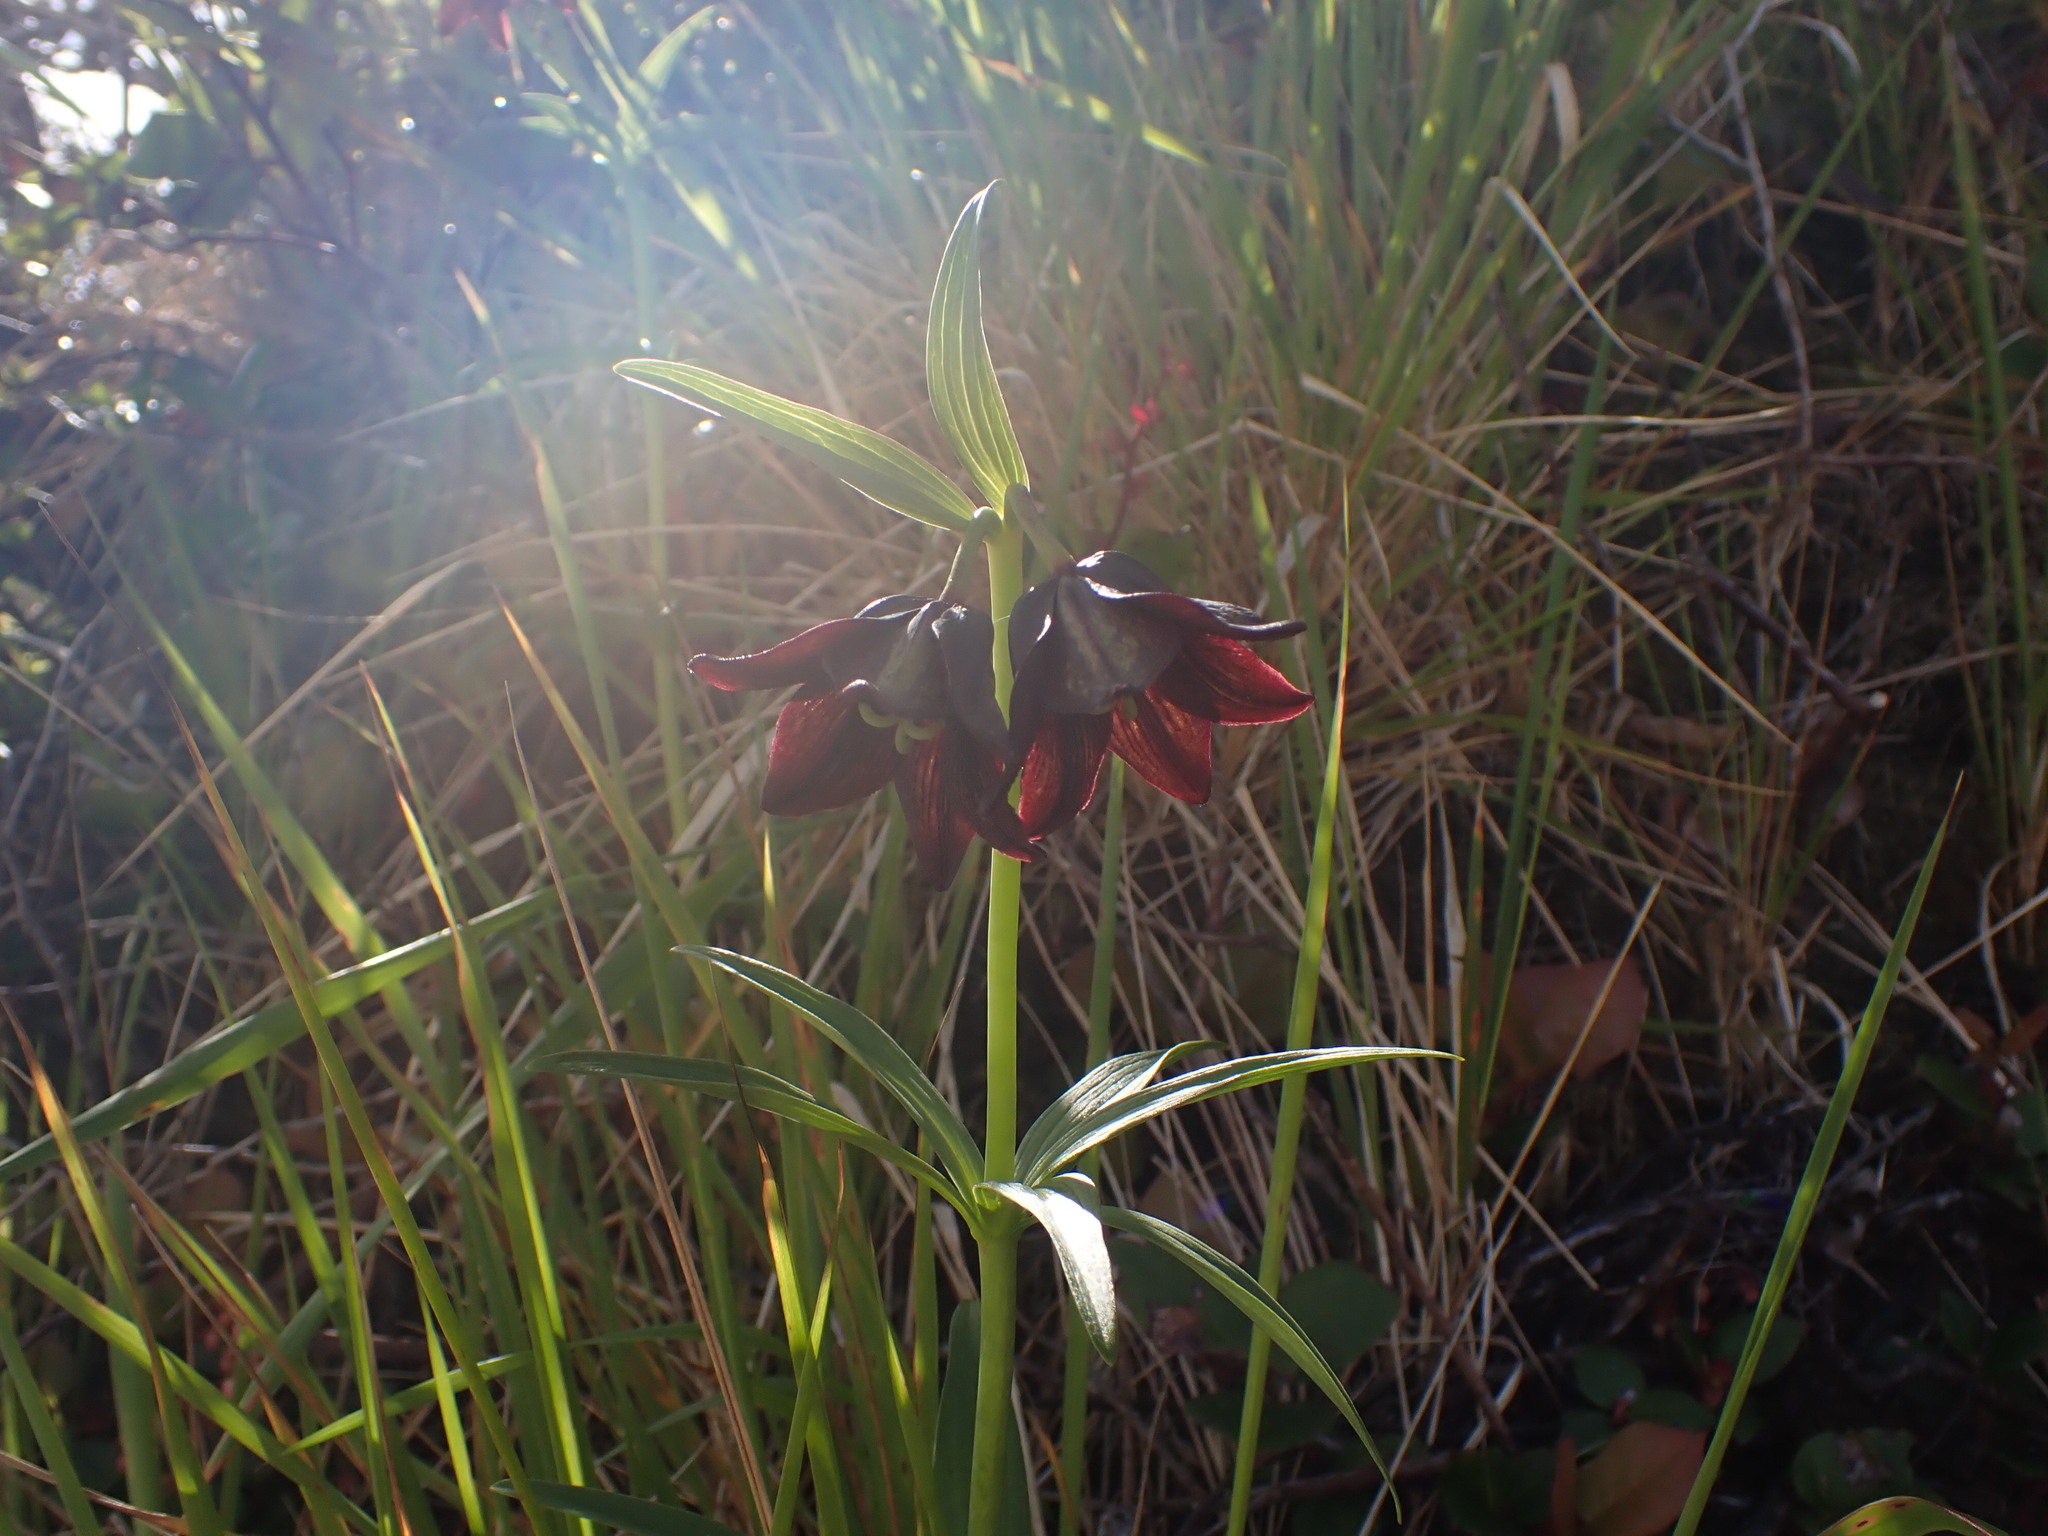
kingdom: Plantae
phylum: Tracheophyta
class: Liliopsida
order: Liliales
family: Liliaceae
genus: Fritillaria
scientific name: Fritillaria camschatcensis
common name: Kamchatka fritillary
